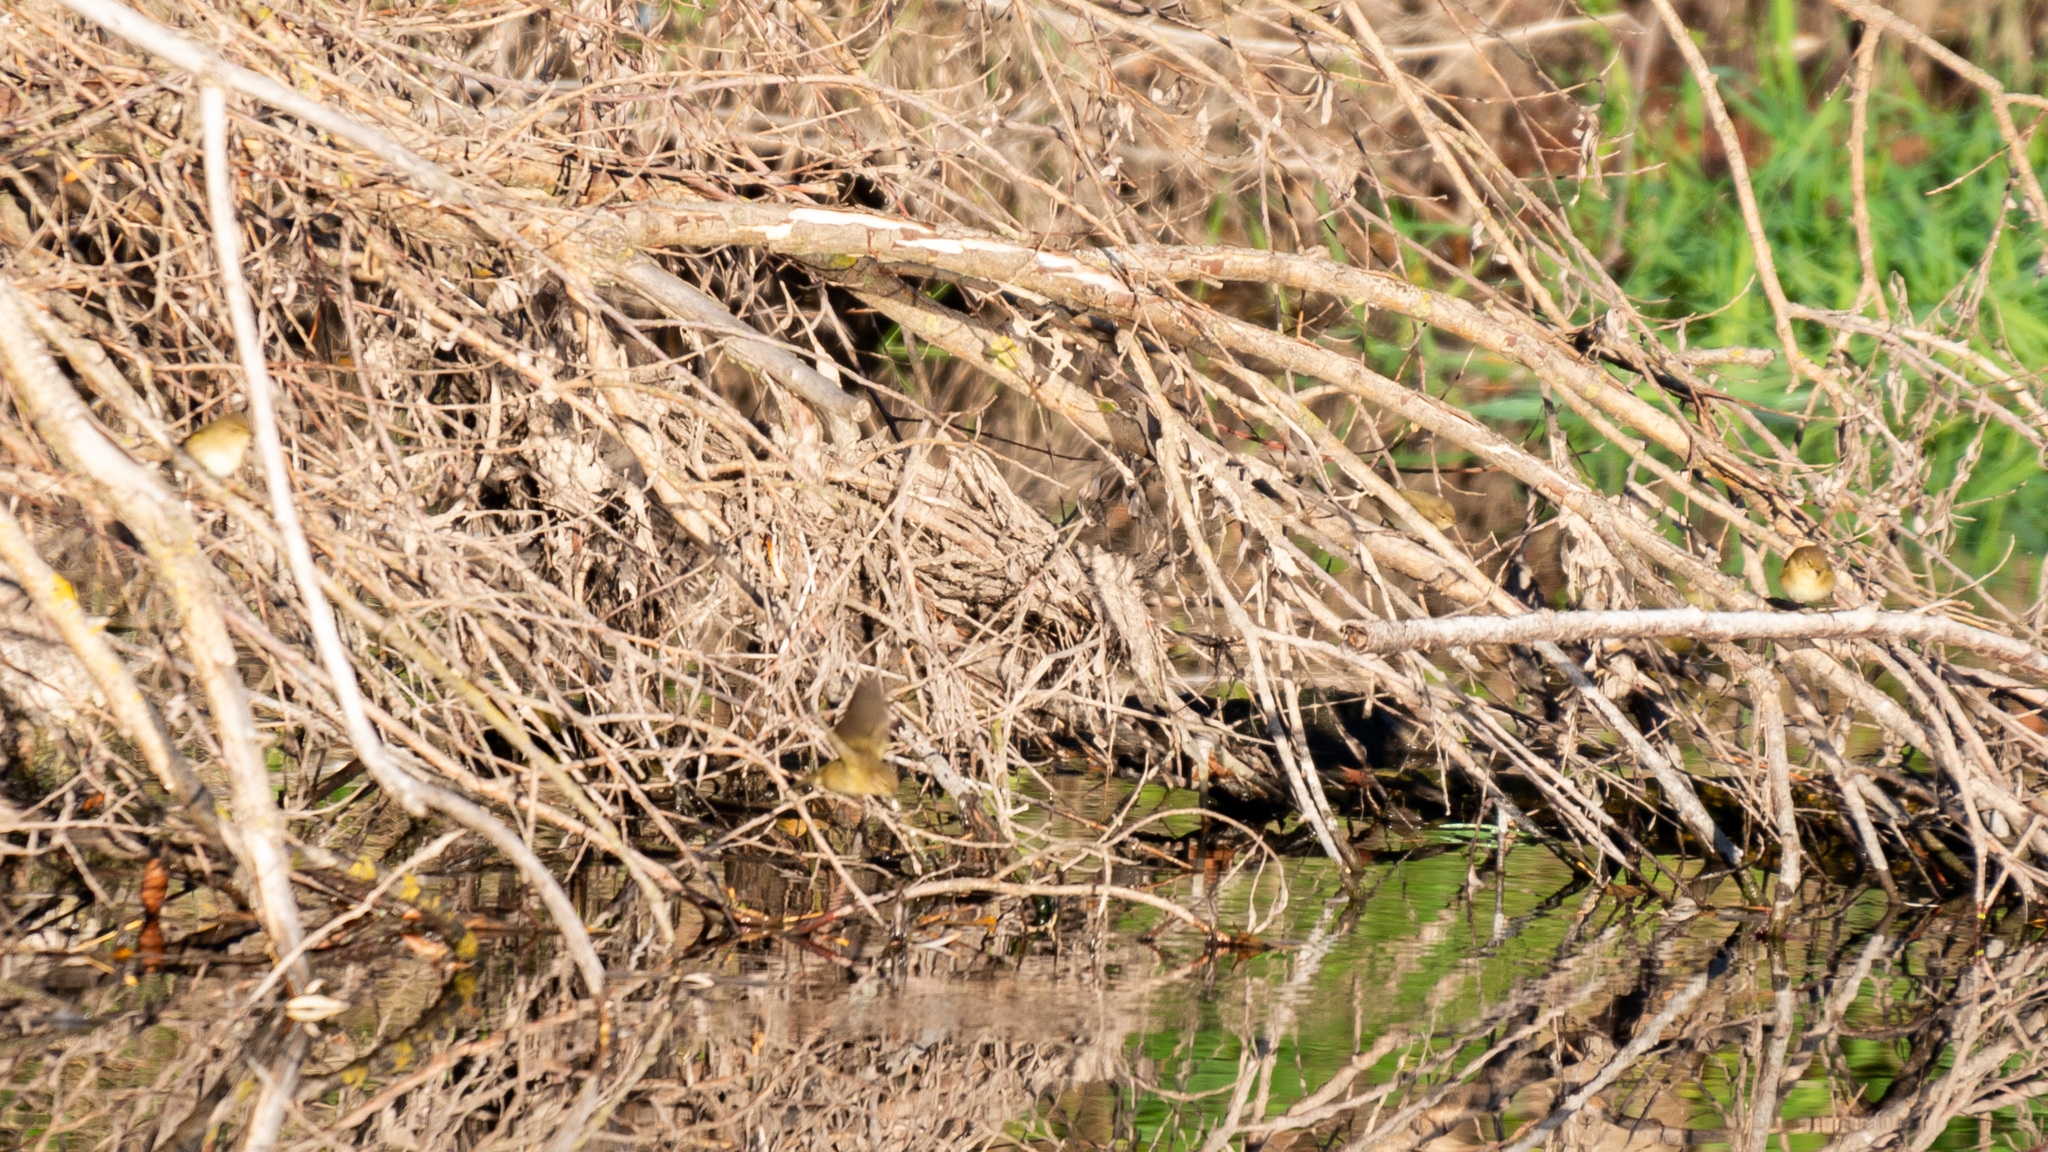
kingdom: Animalia
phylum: Chordata
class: Aves
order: Passeriformes
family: Phylloscopidae
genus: Phylloscopus
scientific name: Phylloscopus collybita
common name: Common chiffchaff
